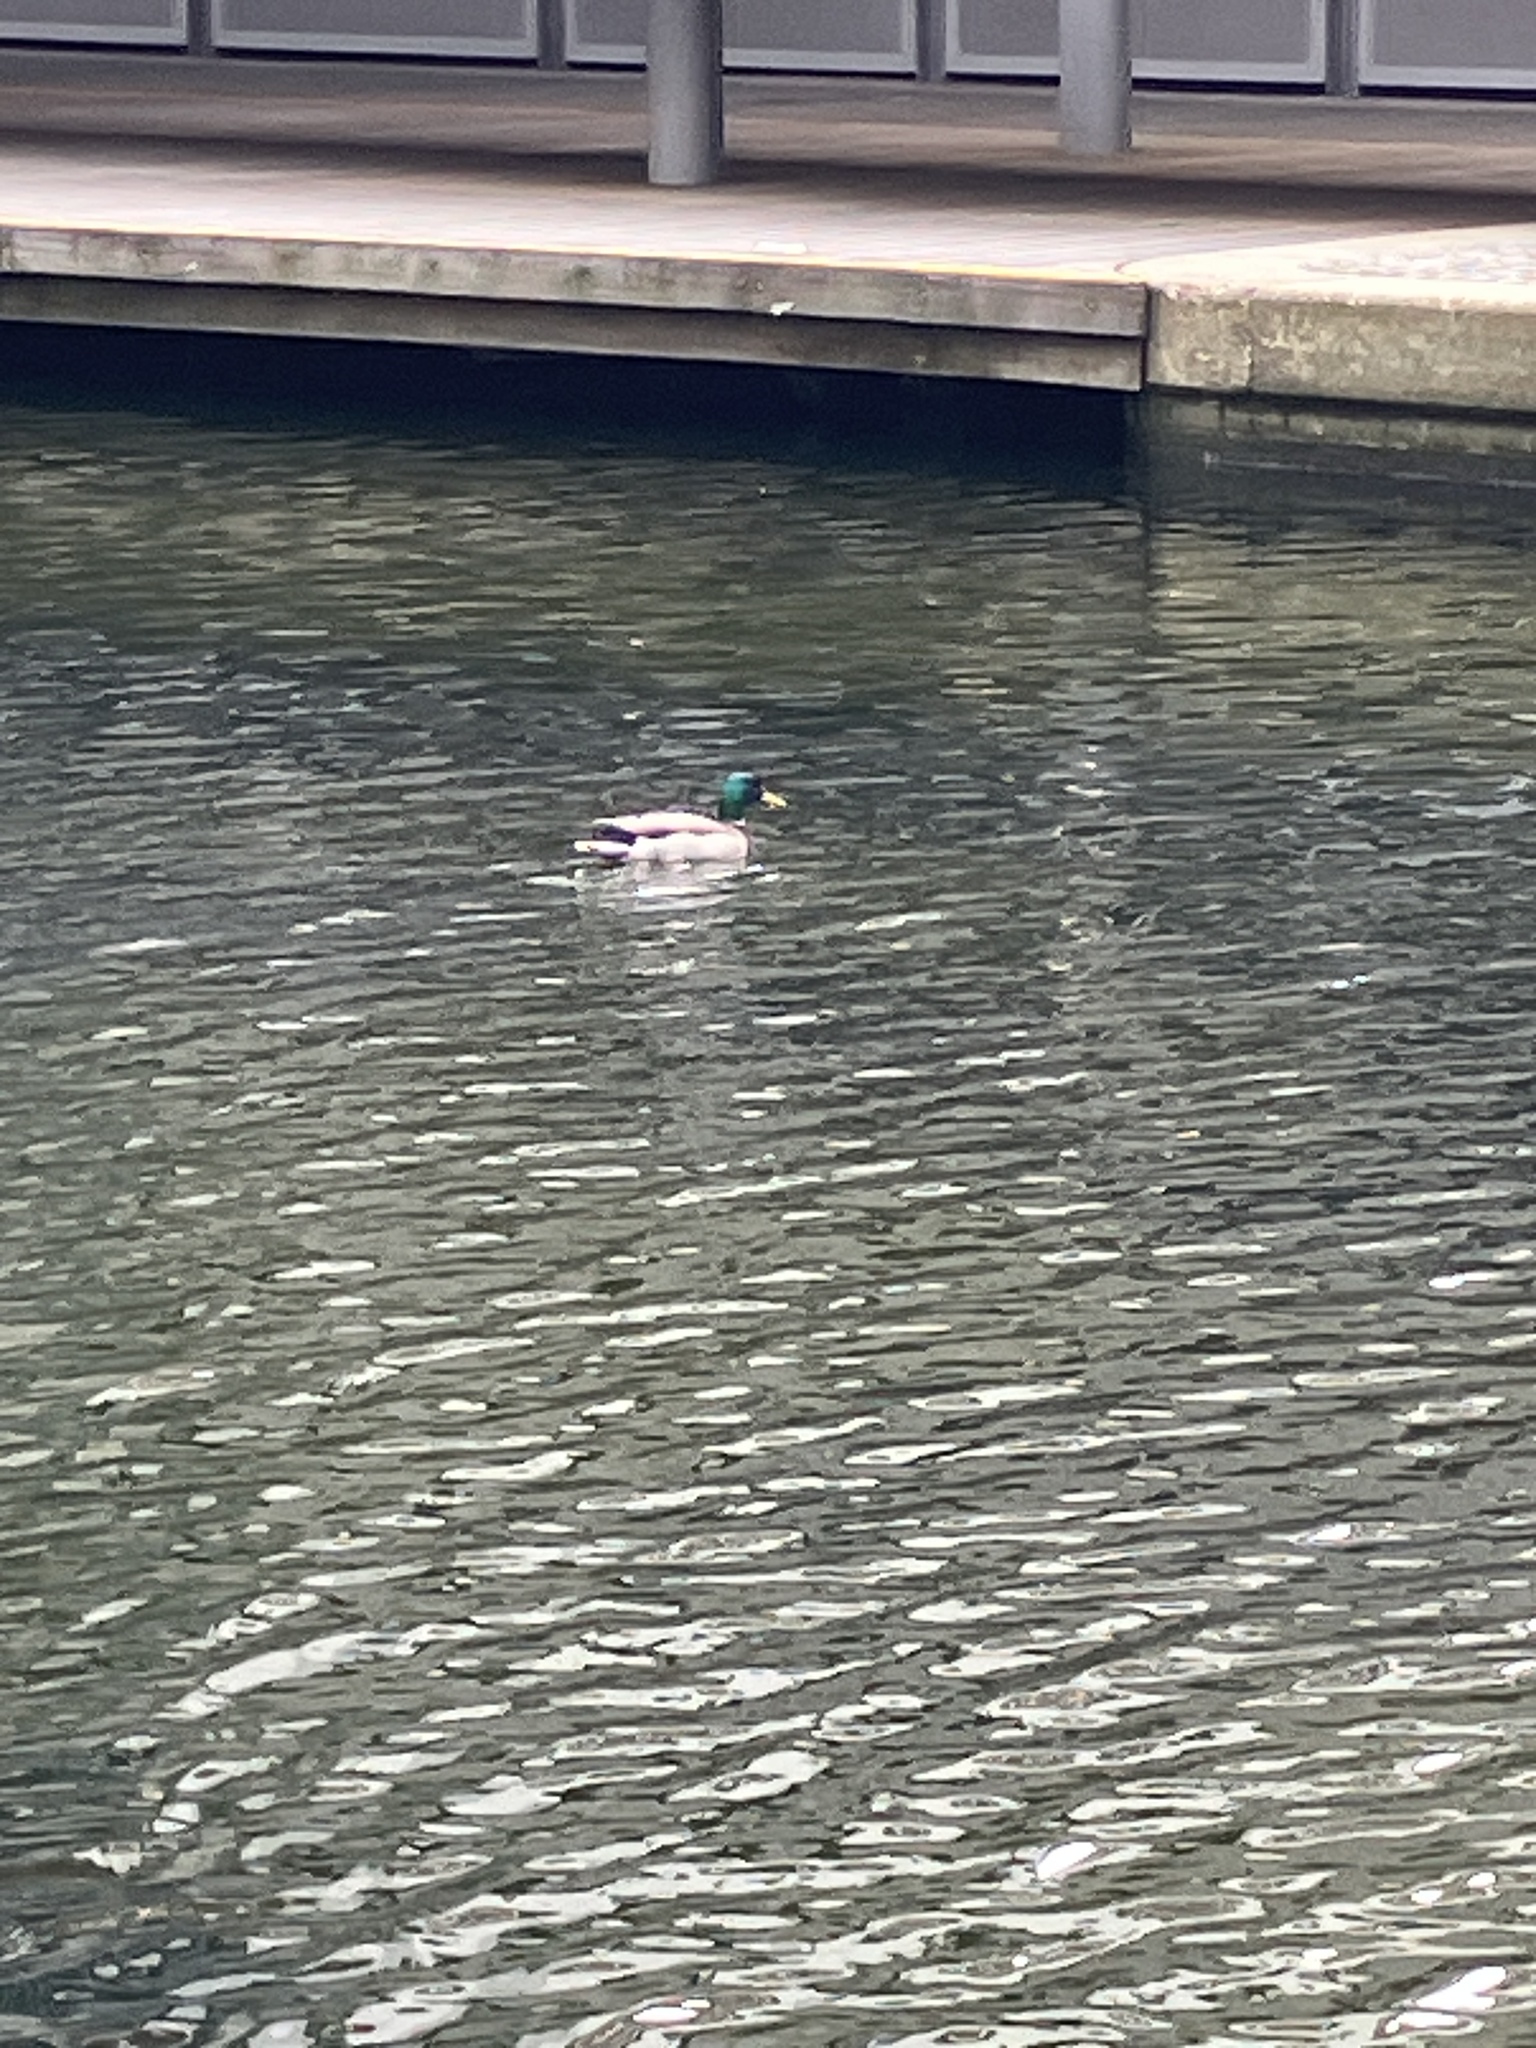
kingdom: Animalia
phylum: Chordata
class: Aves
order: Anseriformes
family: Anatidae
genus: Anas
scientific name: Anas platyrhynchos
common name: Mallard
